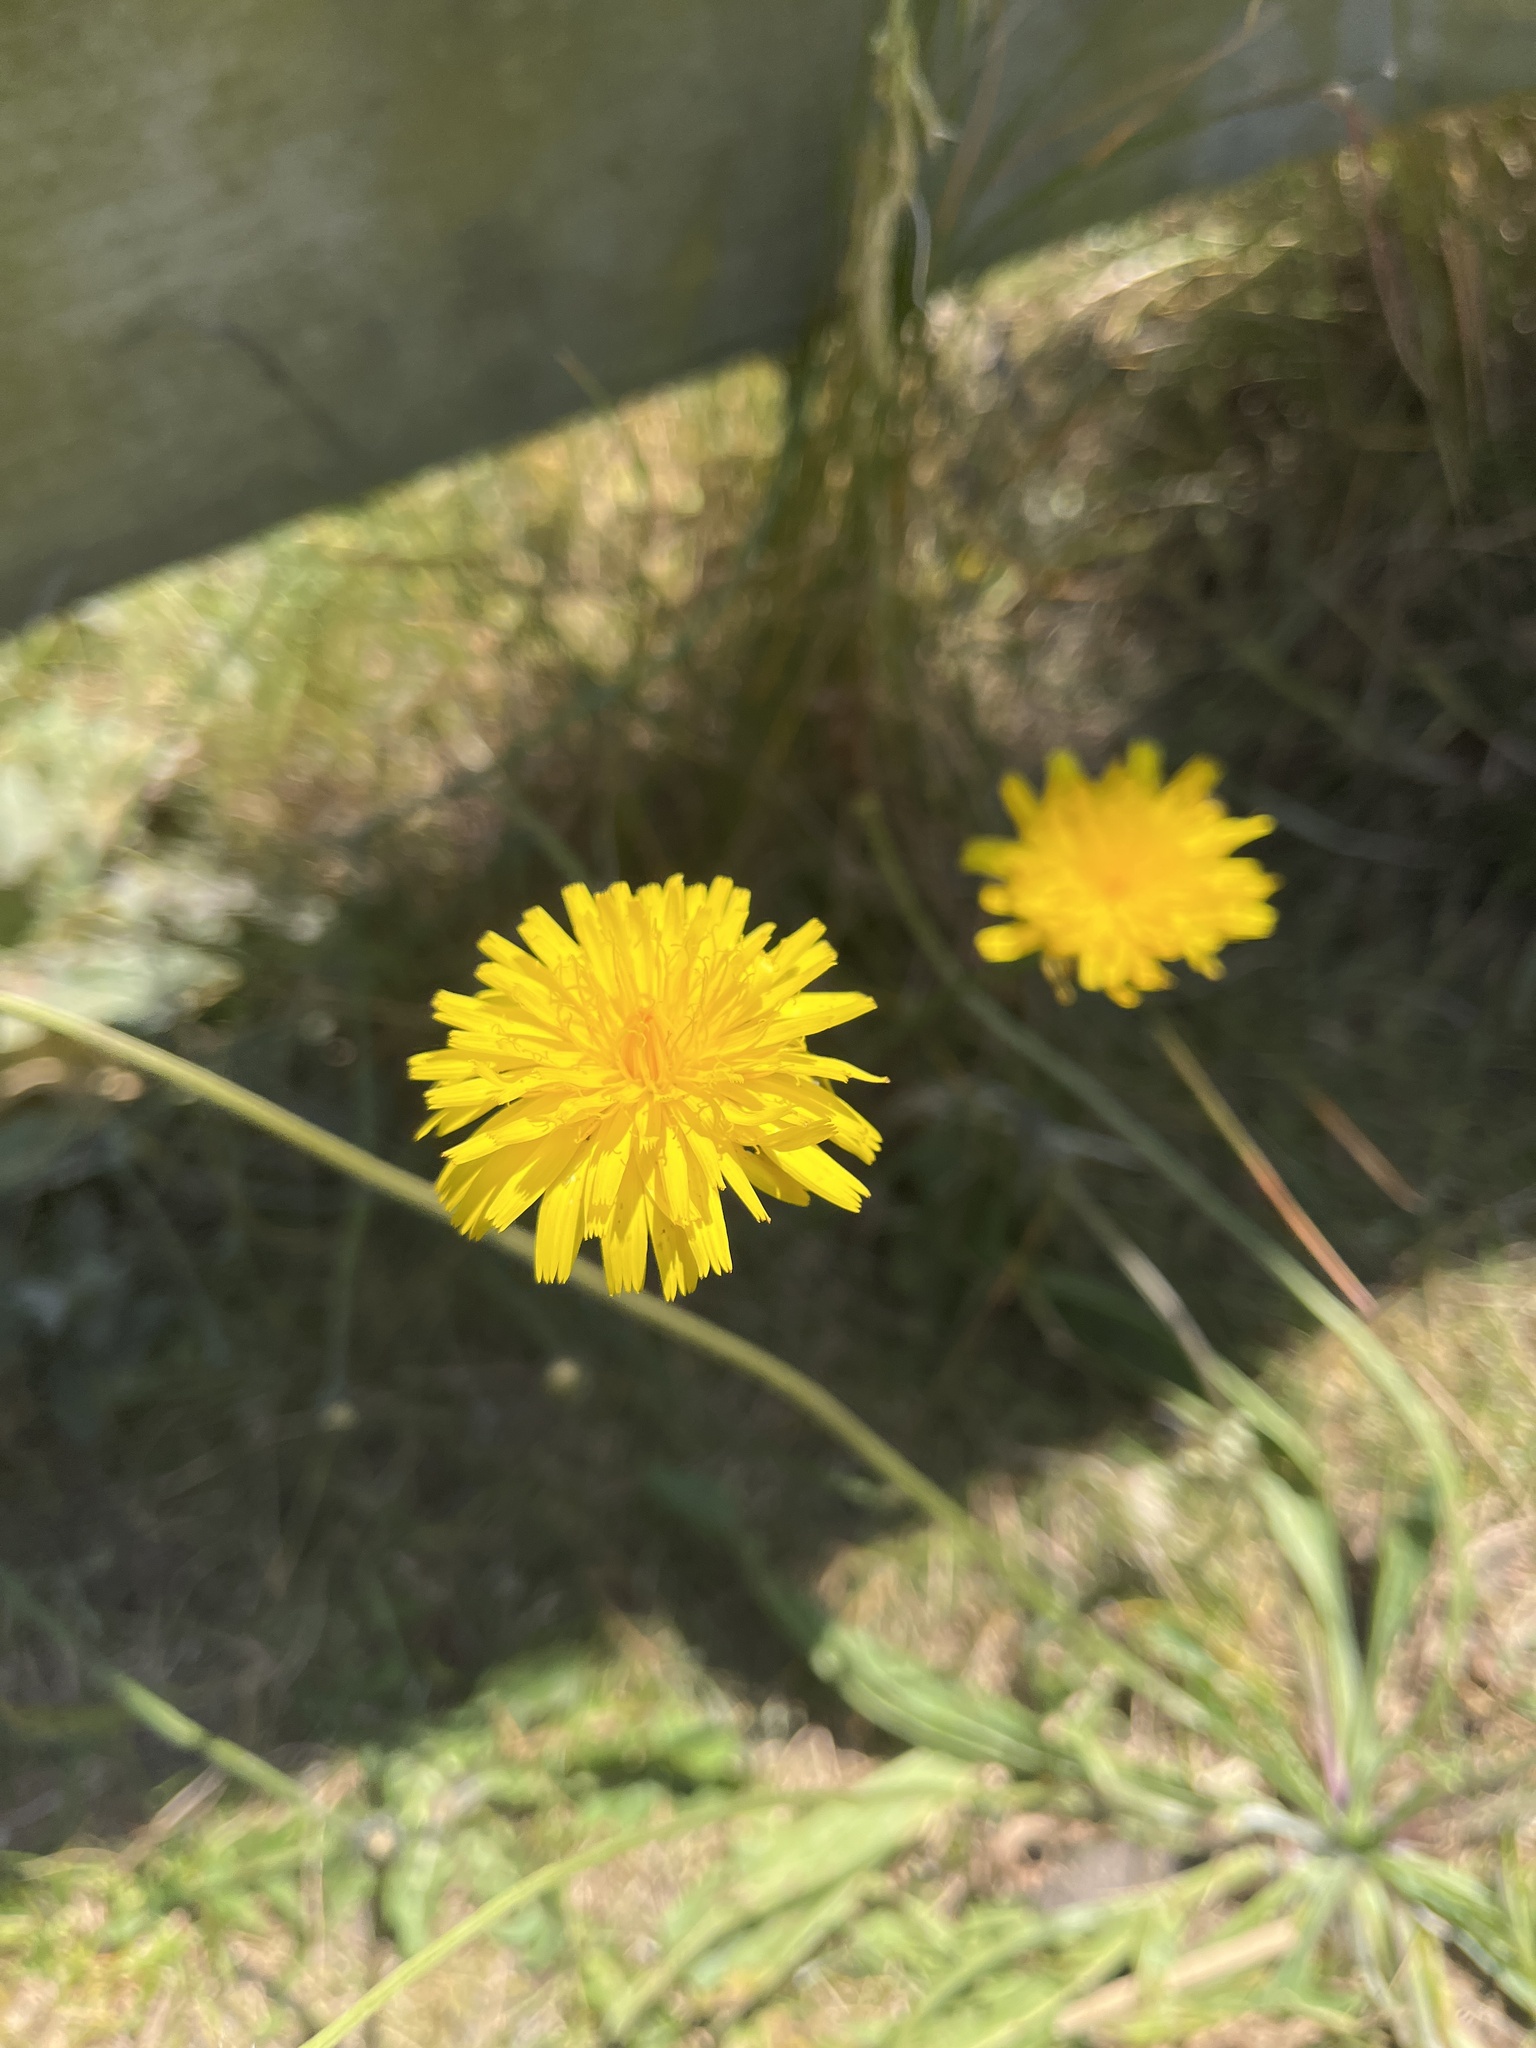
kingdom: Plantae
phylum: Tracheophyta
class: Magnoliopsida
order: Asterales
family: Asteraceae
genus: Hypochaeris
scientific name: Hypochaeris radicata
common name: Flatweed
